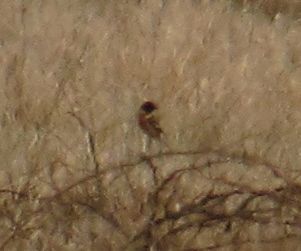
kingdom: Animalia
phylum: Chordata
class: Aves
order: Passeriformes
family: Muscicapidae
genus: Saxicola
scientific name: Saxicola rubicola
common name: European stonechat
